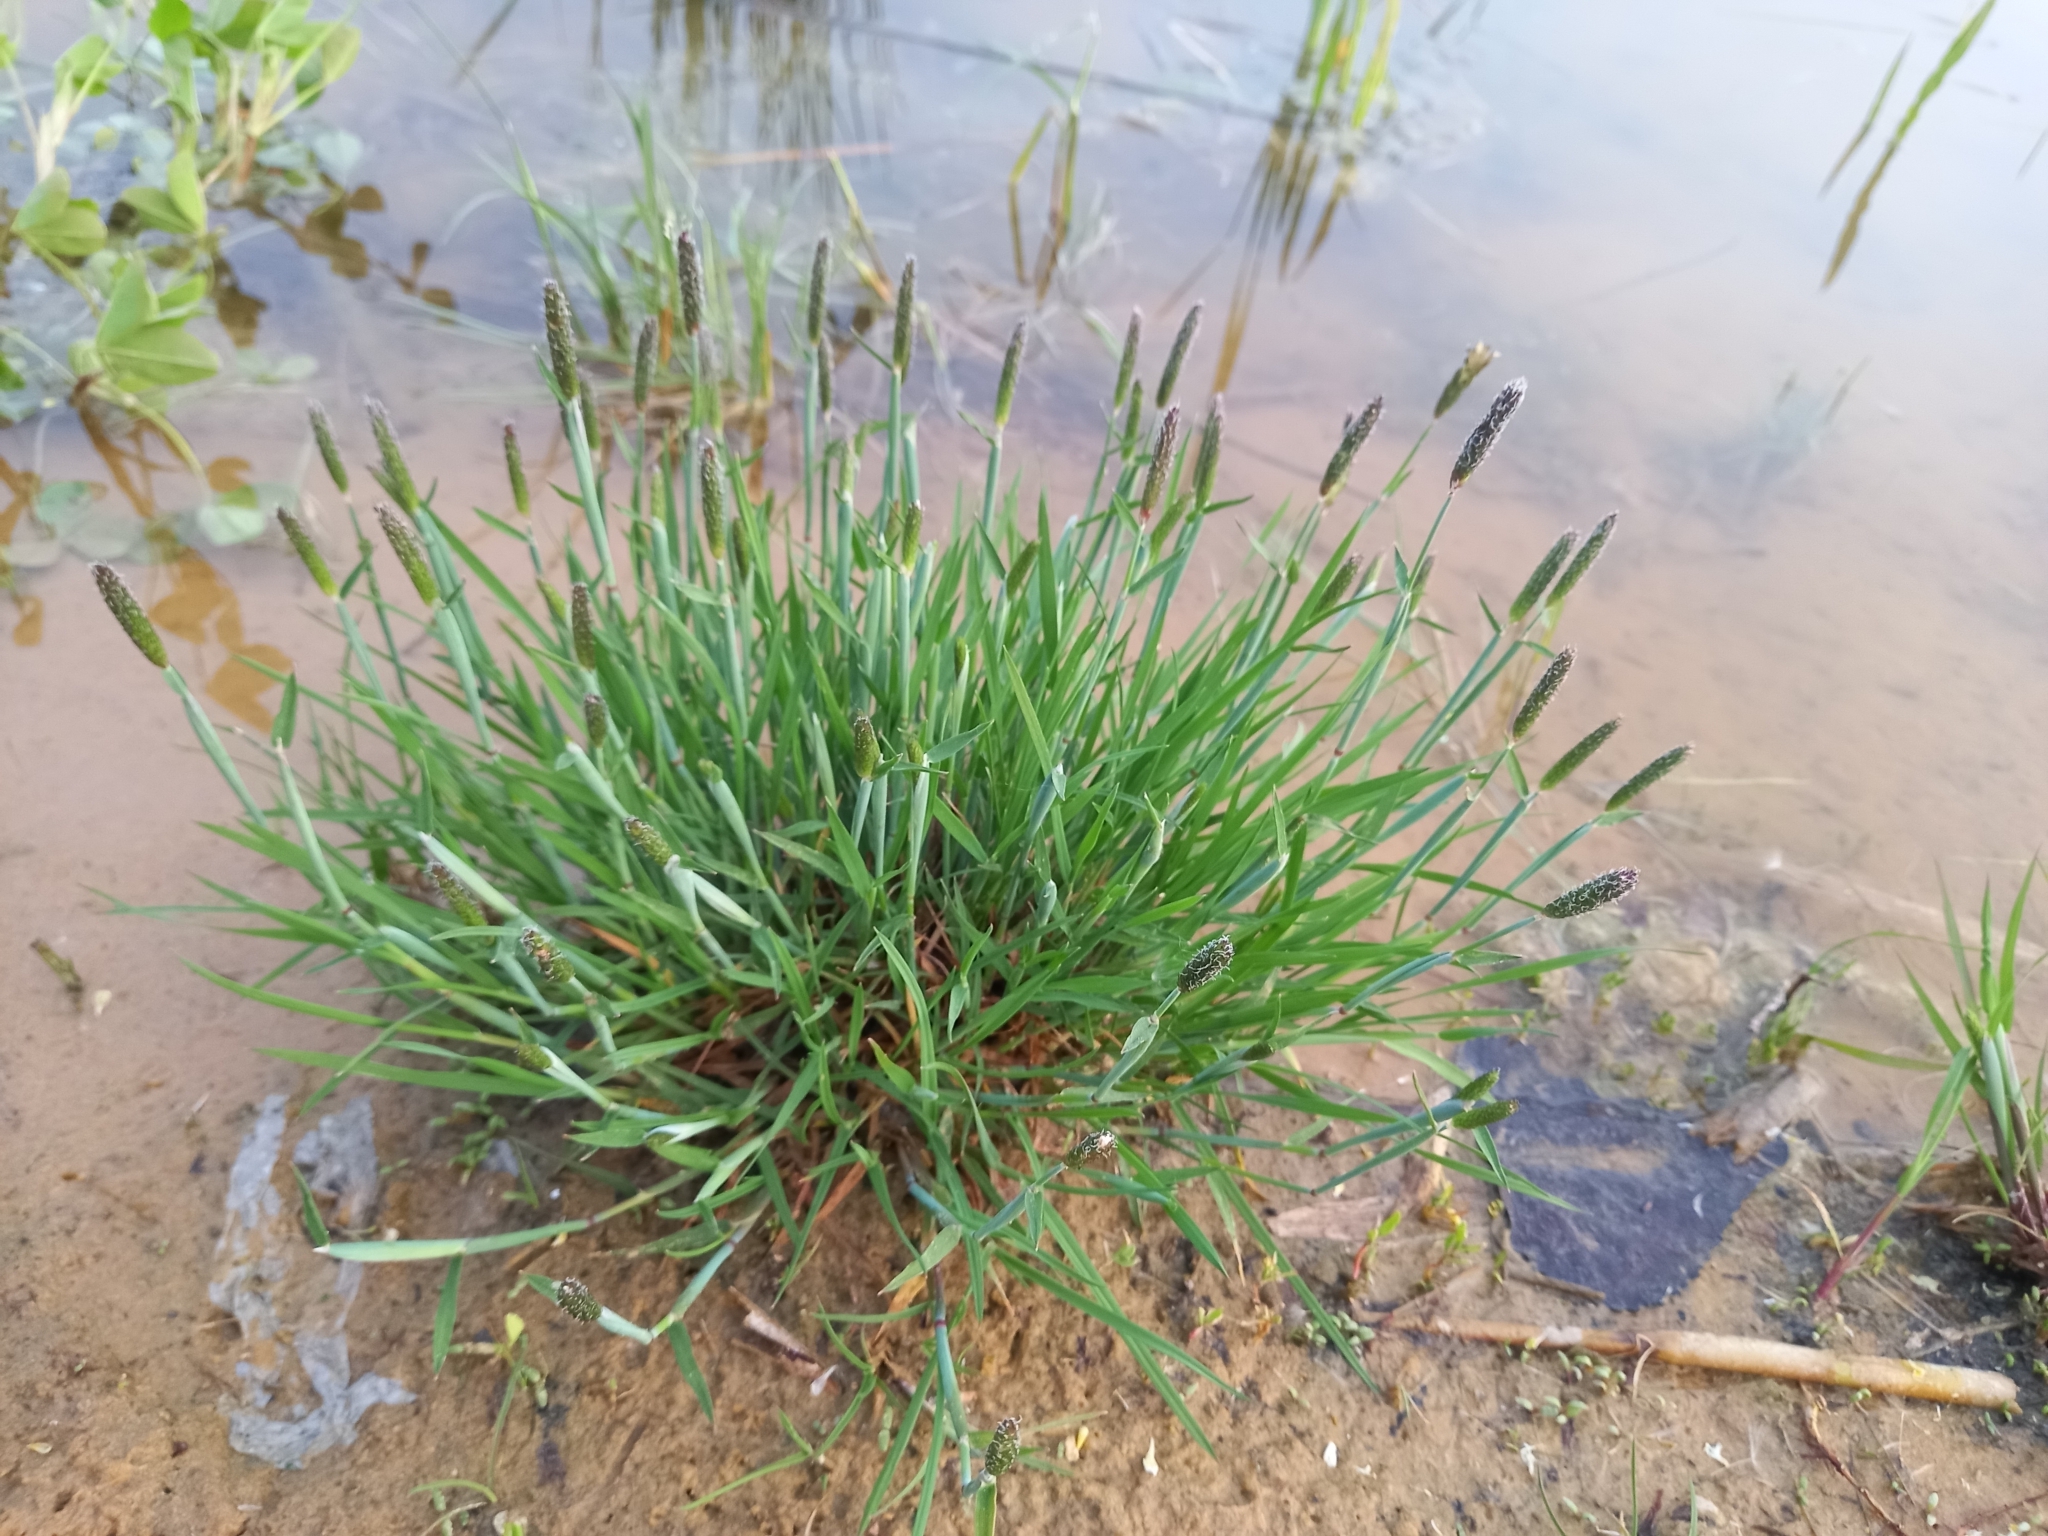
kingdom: Plantae
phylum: Tracheophyta
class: Liliopsida
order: Poales
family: Poaceae
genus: Alopecurus
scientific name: Alopecurus geniculatus
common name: Water foxtail
